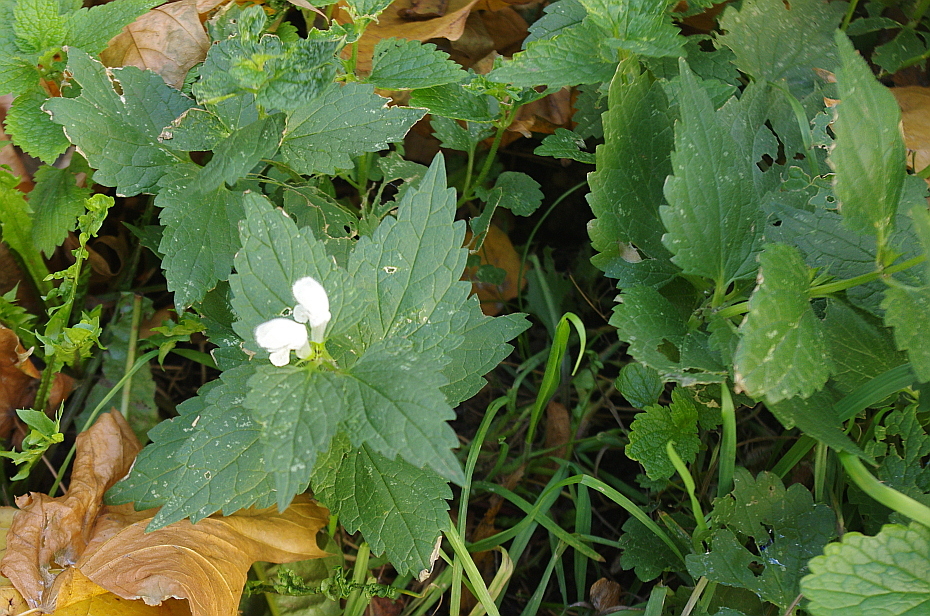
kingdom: Plantae
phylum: Tracheophyta
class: Magnoliopsida
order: Lamiales
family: Lamiaceae
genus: Lamium
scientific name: Lamium album
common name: White dead-nettle
